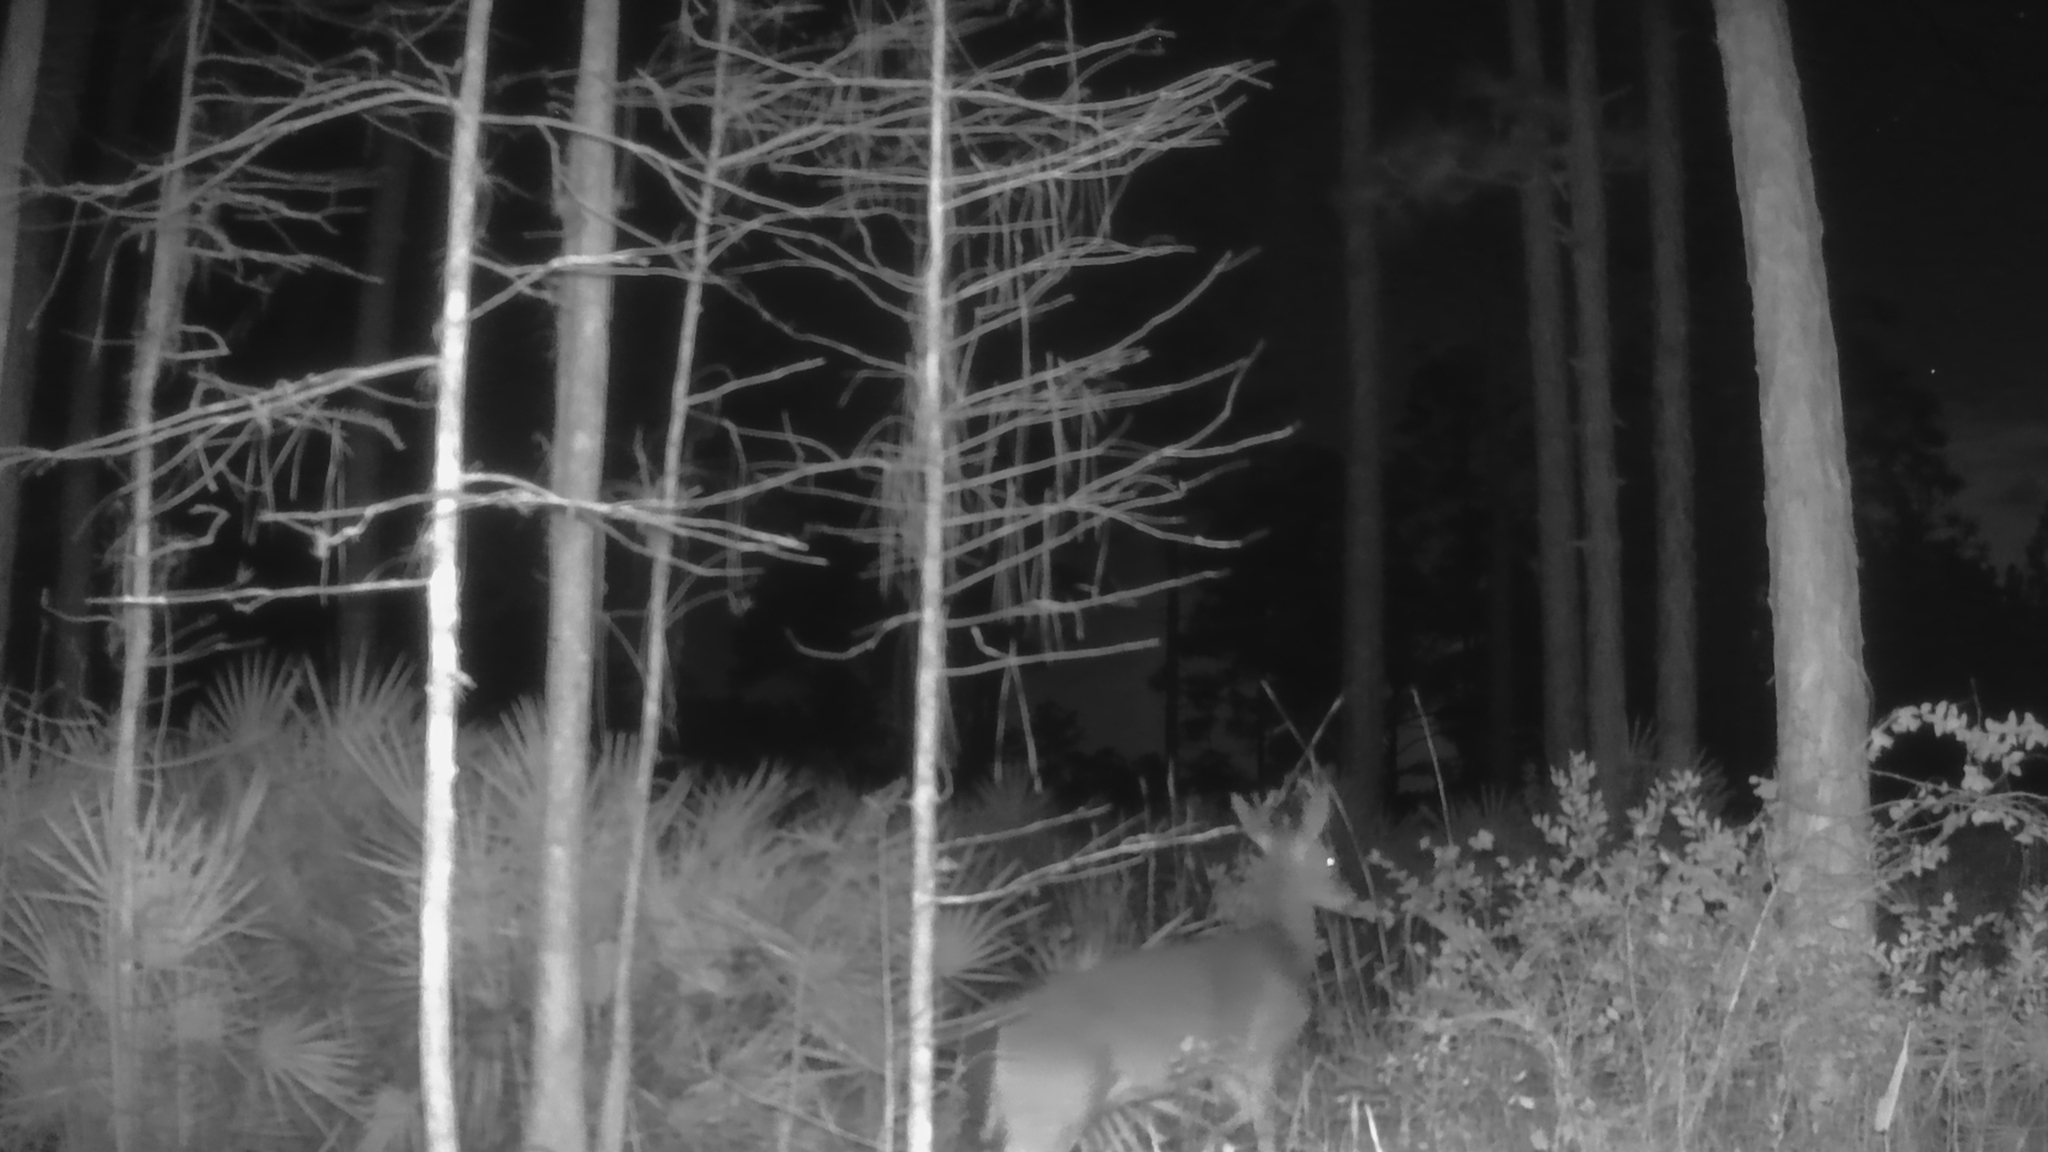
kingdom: Animalia
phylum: Chordata
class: Mammalia
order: Artiodactyla
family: Cervidae
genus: Odocoileus
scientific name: Odocoileus virginianus
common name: White-tailed deer
